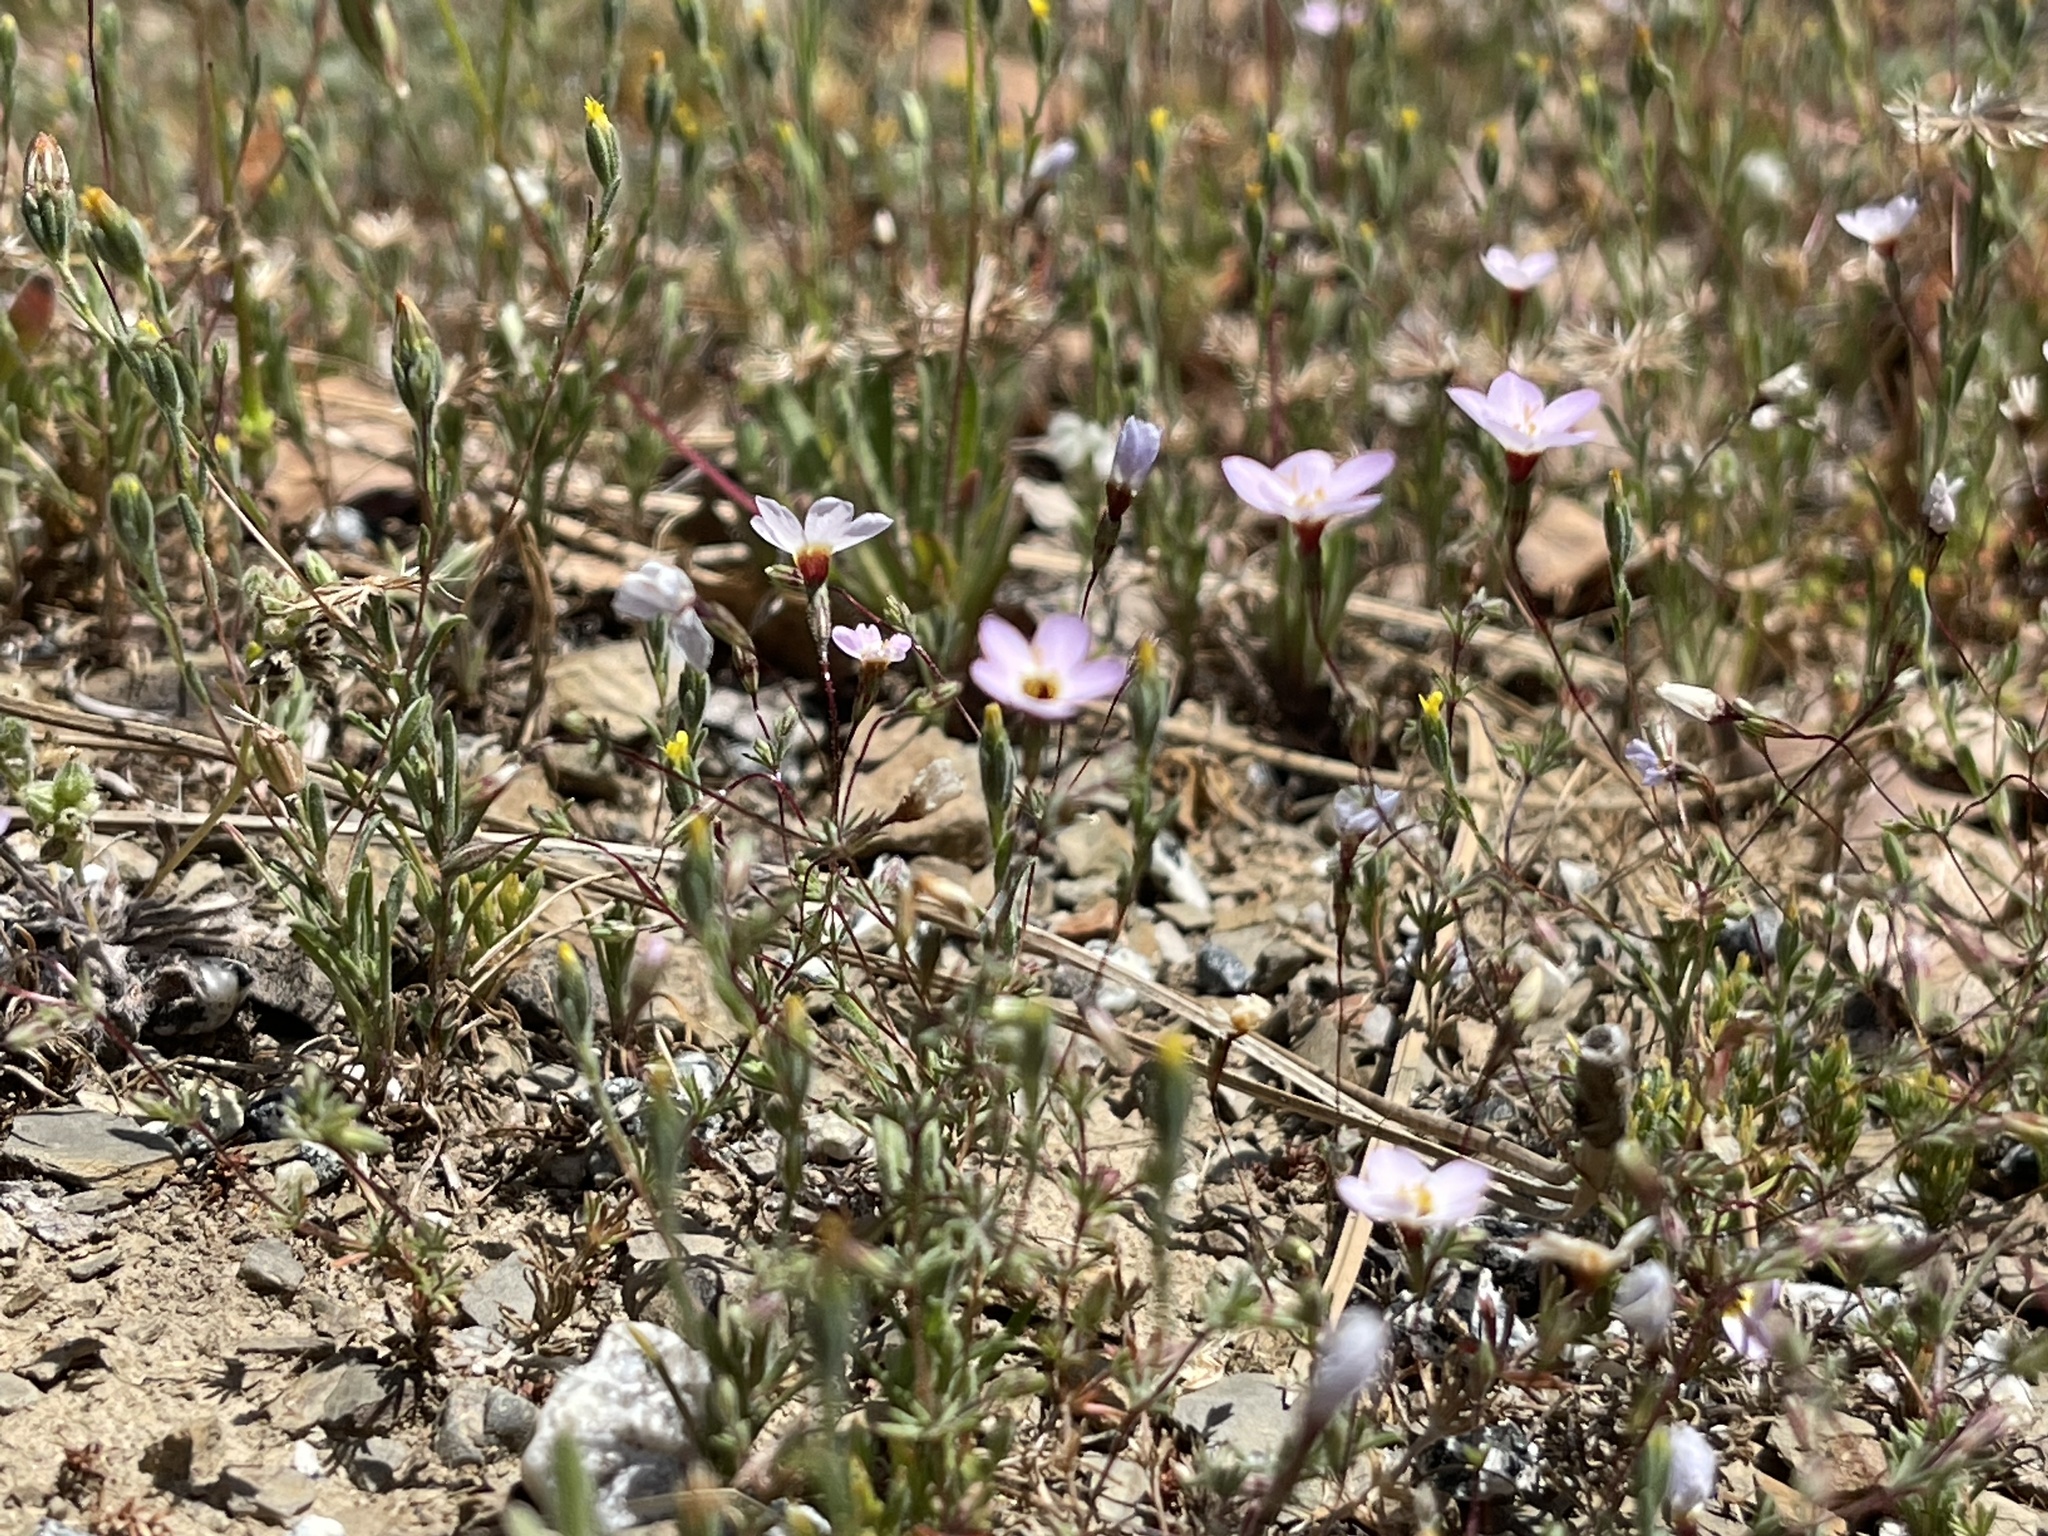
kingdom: Plantae
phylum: Tracheophyta
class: Magnoliopsida
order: Ericales
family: Polemoniaceae
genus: Leptosiphon
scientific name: Leptosiphon ambiguus
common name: Serpentine linanthus
